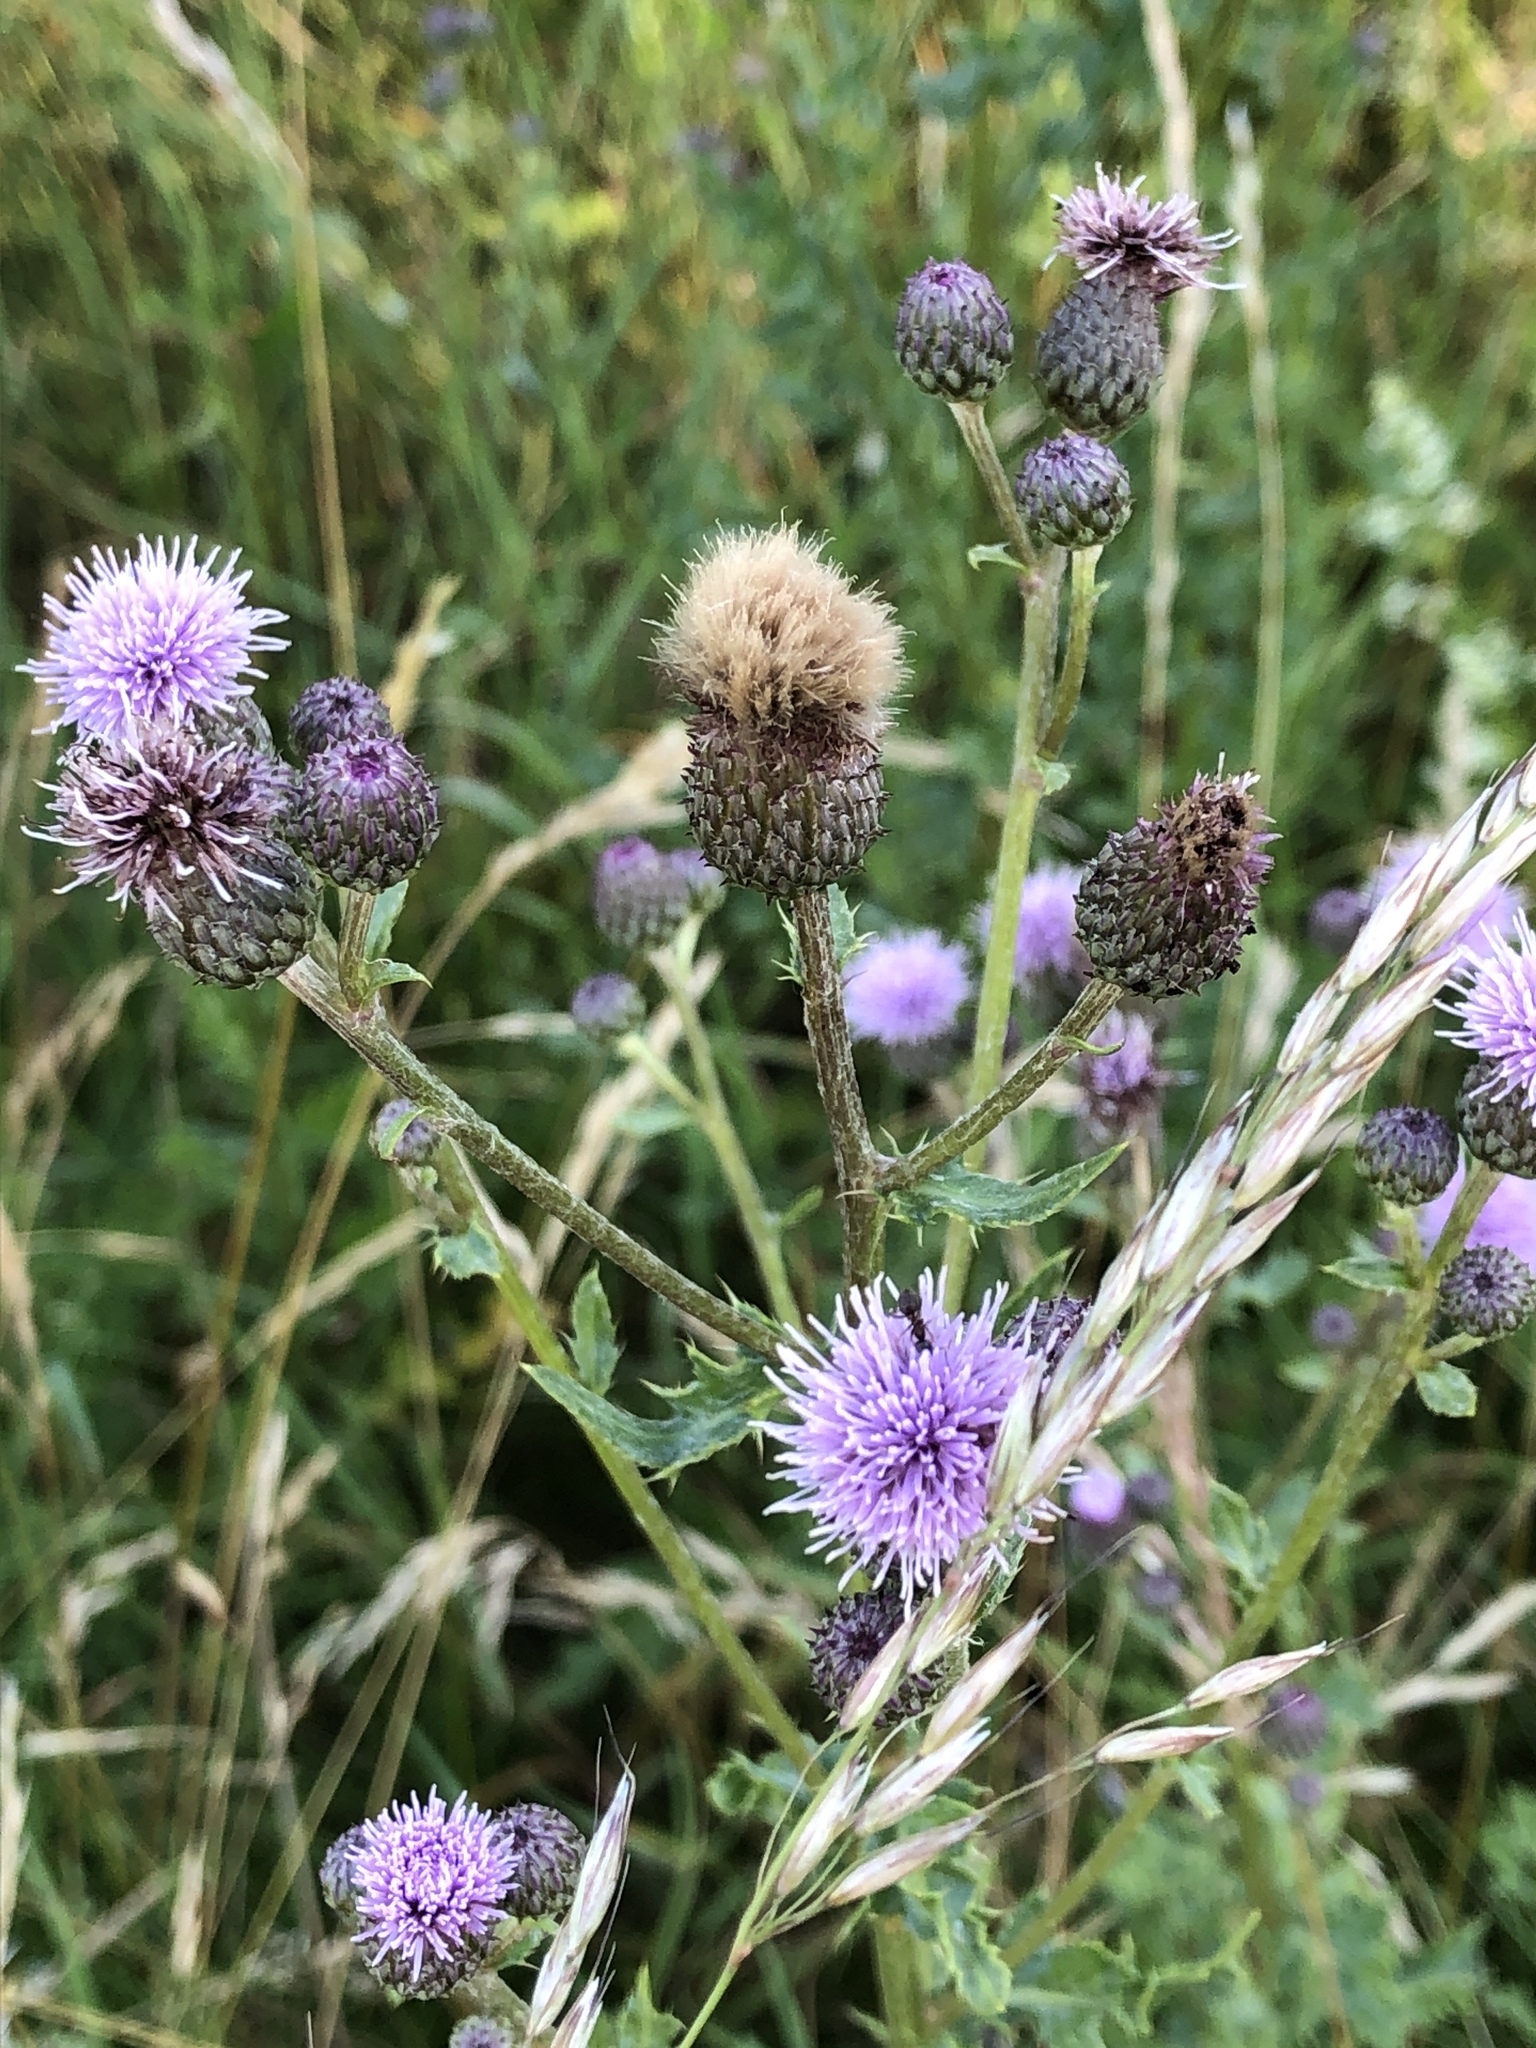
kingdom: Plantae
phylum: Tracheophyta
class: Magnoliopsida
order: Asterales
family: Asteraceae
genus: Cirsium
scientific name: Cirsium arvense
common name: Creeping thistle
